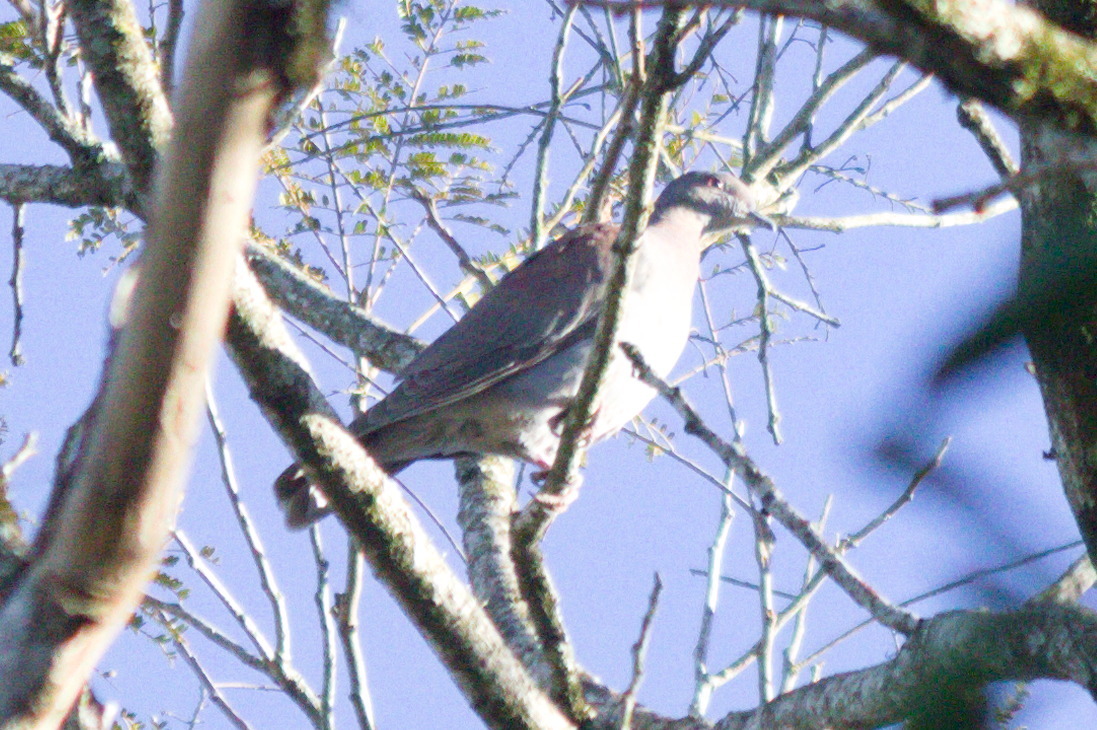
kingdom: Animalia
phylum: Chordata
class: Aves
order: Columbiformes
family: Columbidae
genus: Patagioenas
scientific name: Patagioenas cayennensis
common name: Pale-vented pigeon
